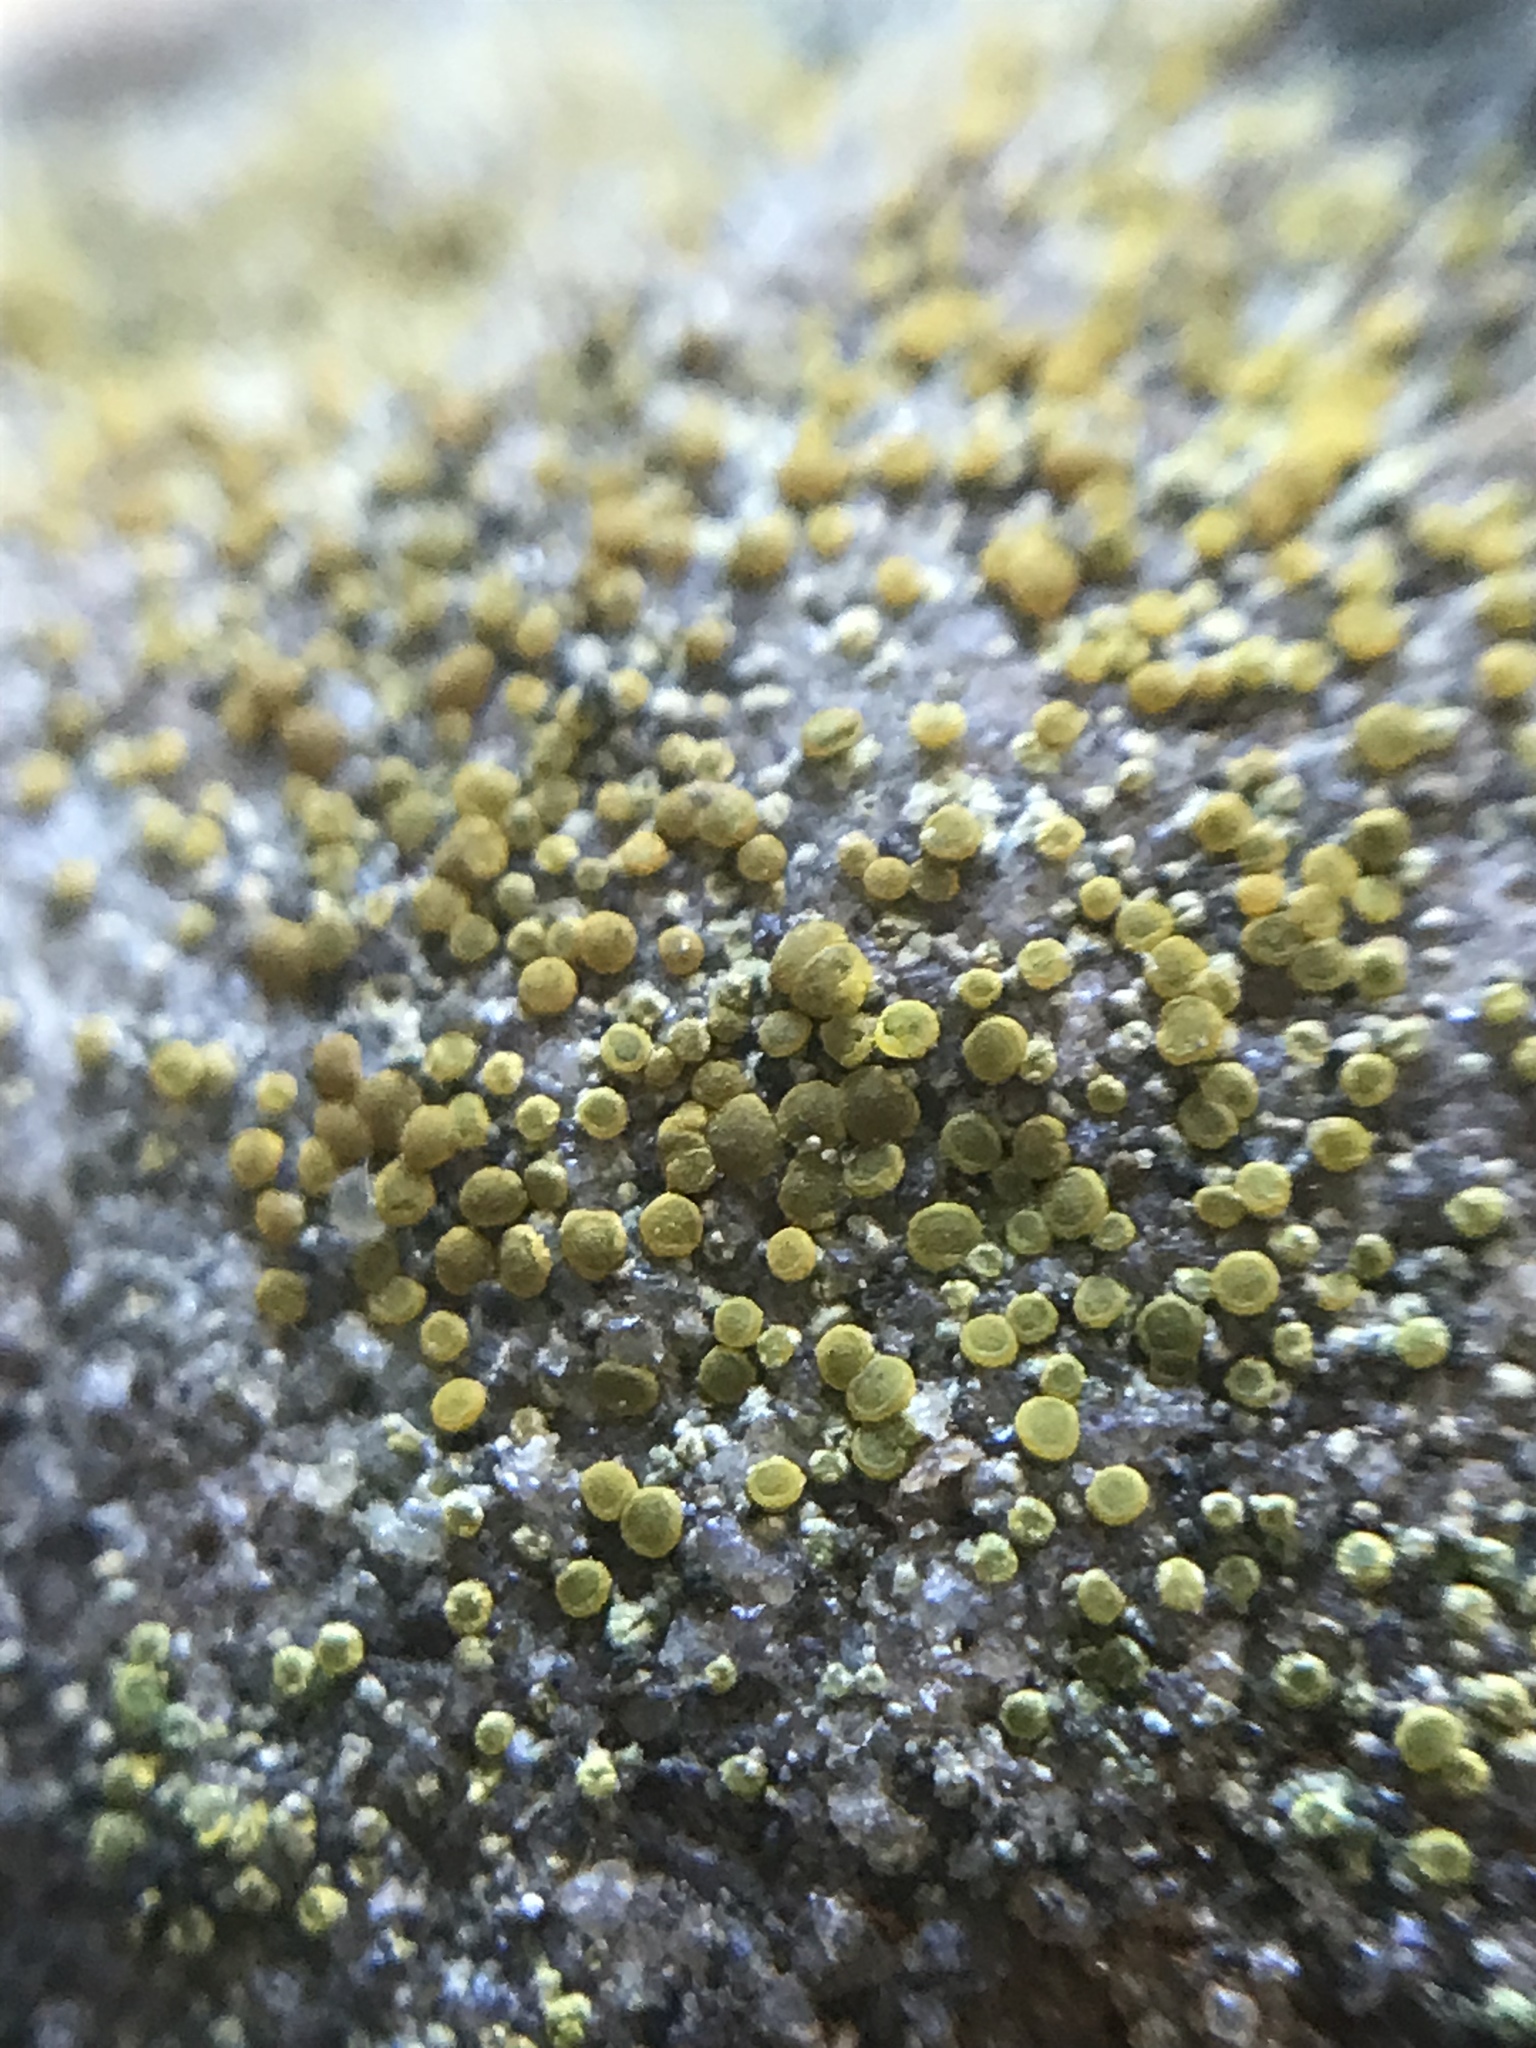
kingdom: Fungi
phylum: Ascomycota
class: Lecanoromycetes
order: Teloschistales
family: Teloschistaceae
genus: Xanthocarpia
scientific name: Xanthocarpia feracissima
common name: Sidewalk firedot
